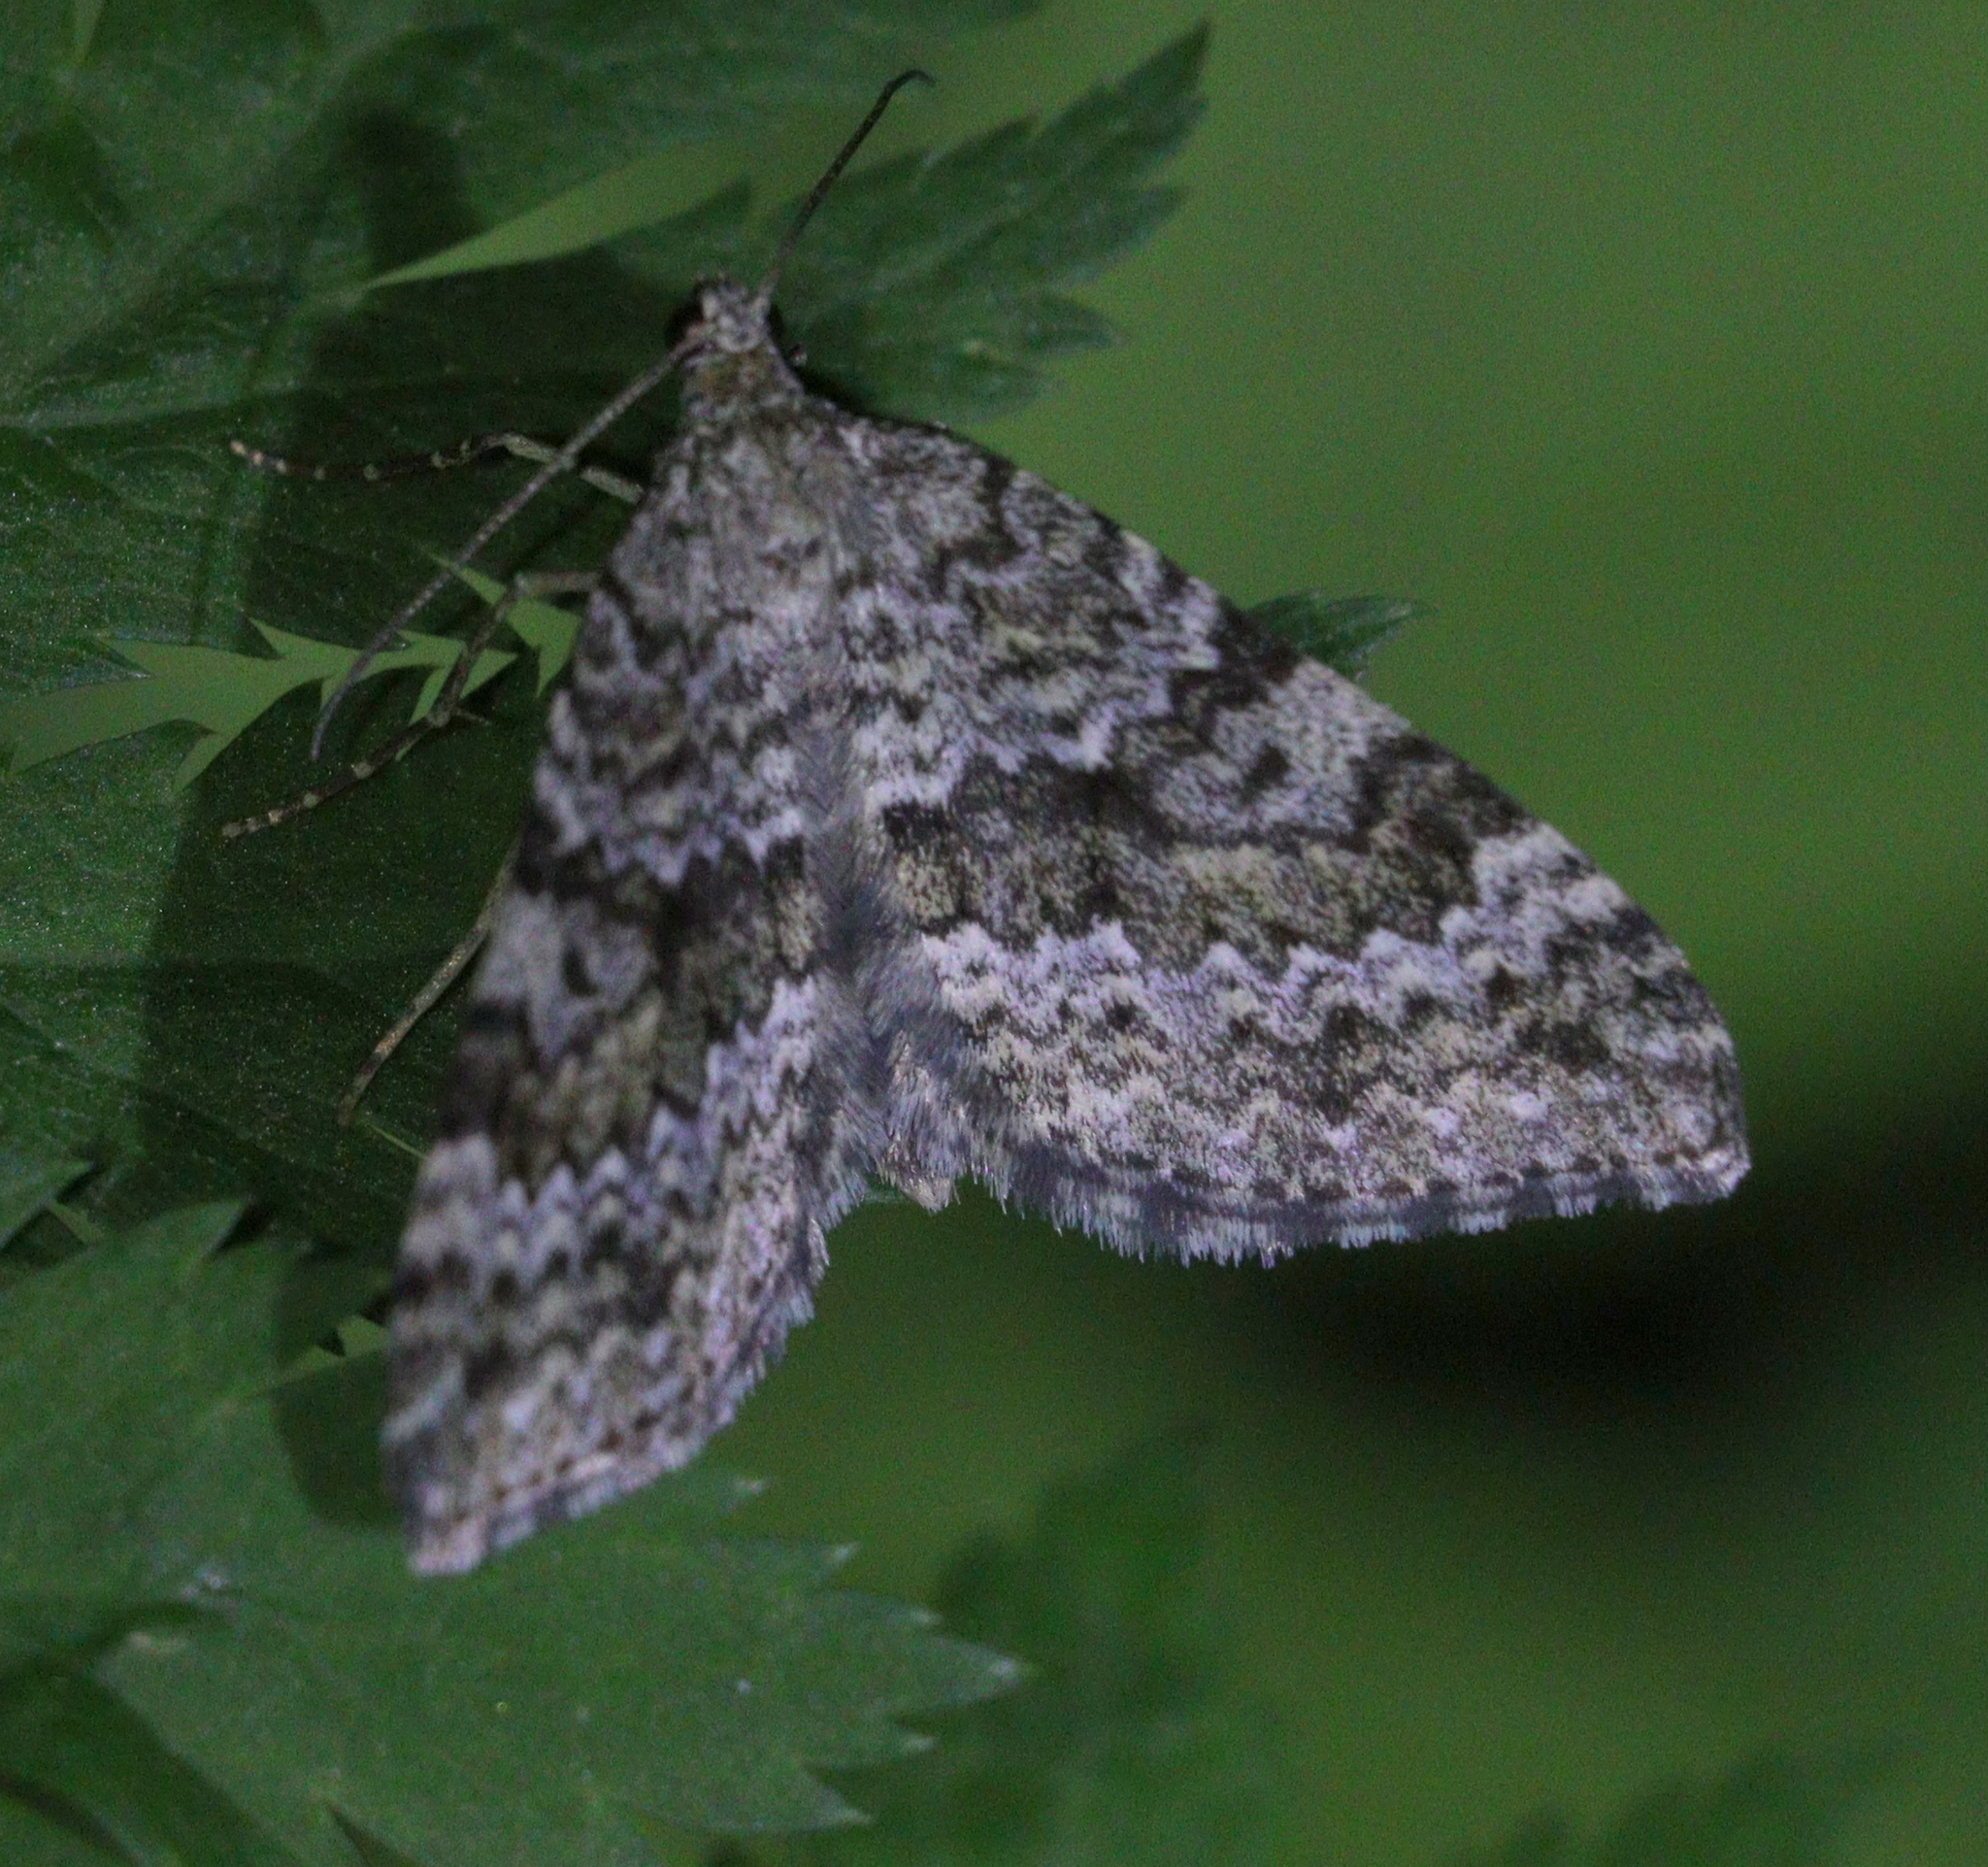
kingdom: Animalia
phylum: Arthropoda
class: Insecta
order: Lepidoptera
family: Geometridae
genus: Entephria
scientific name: Entephria caesiata
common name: Grey mountain moth
